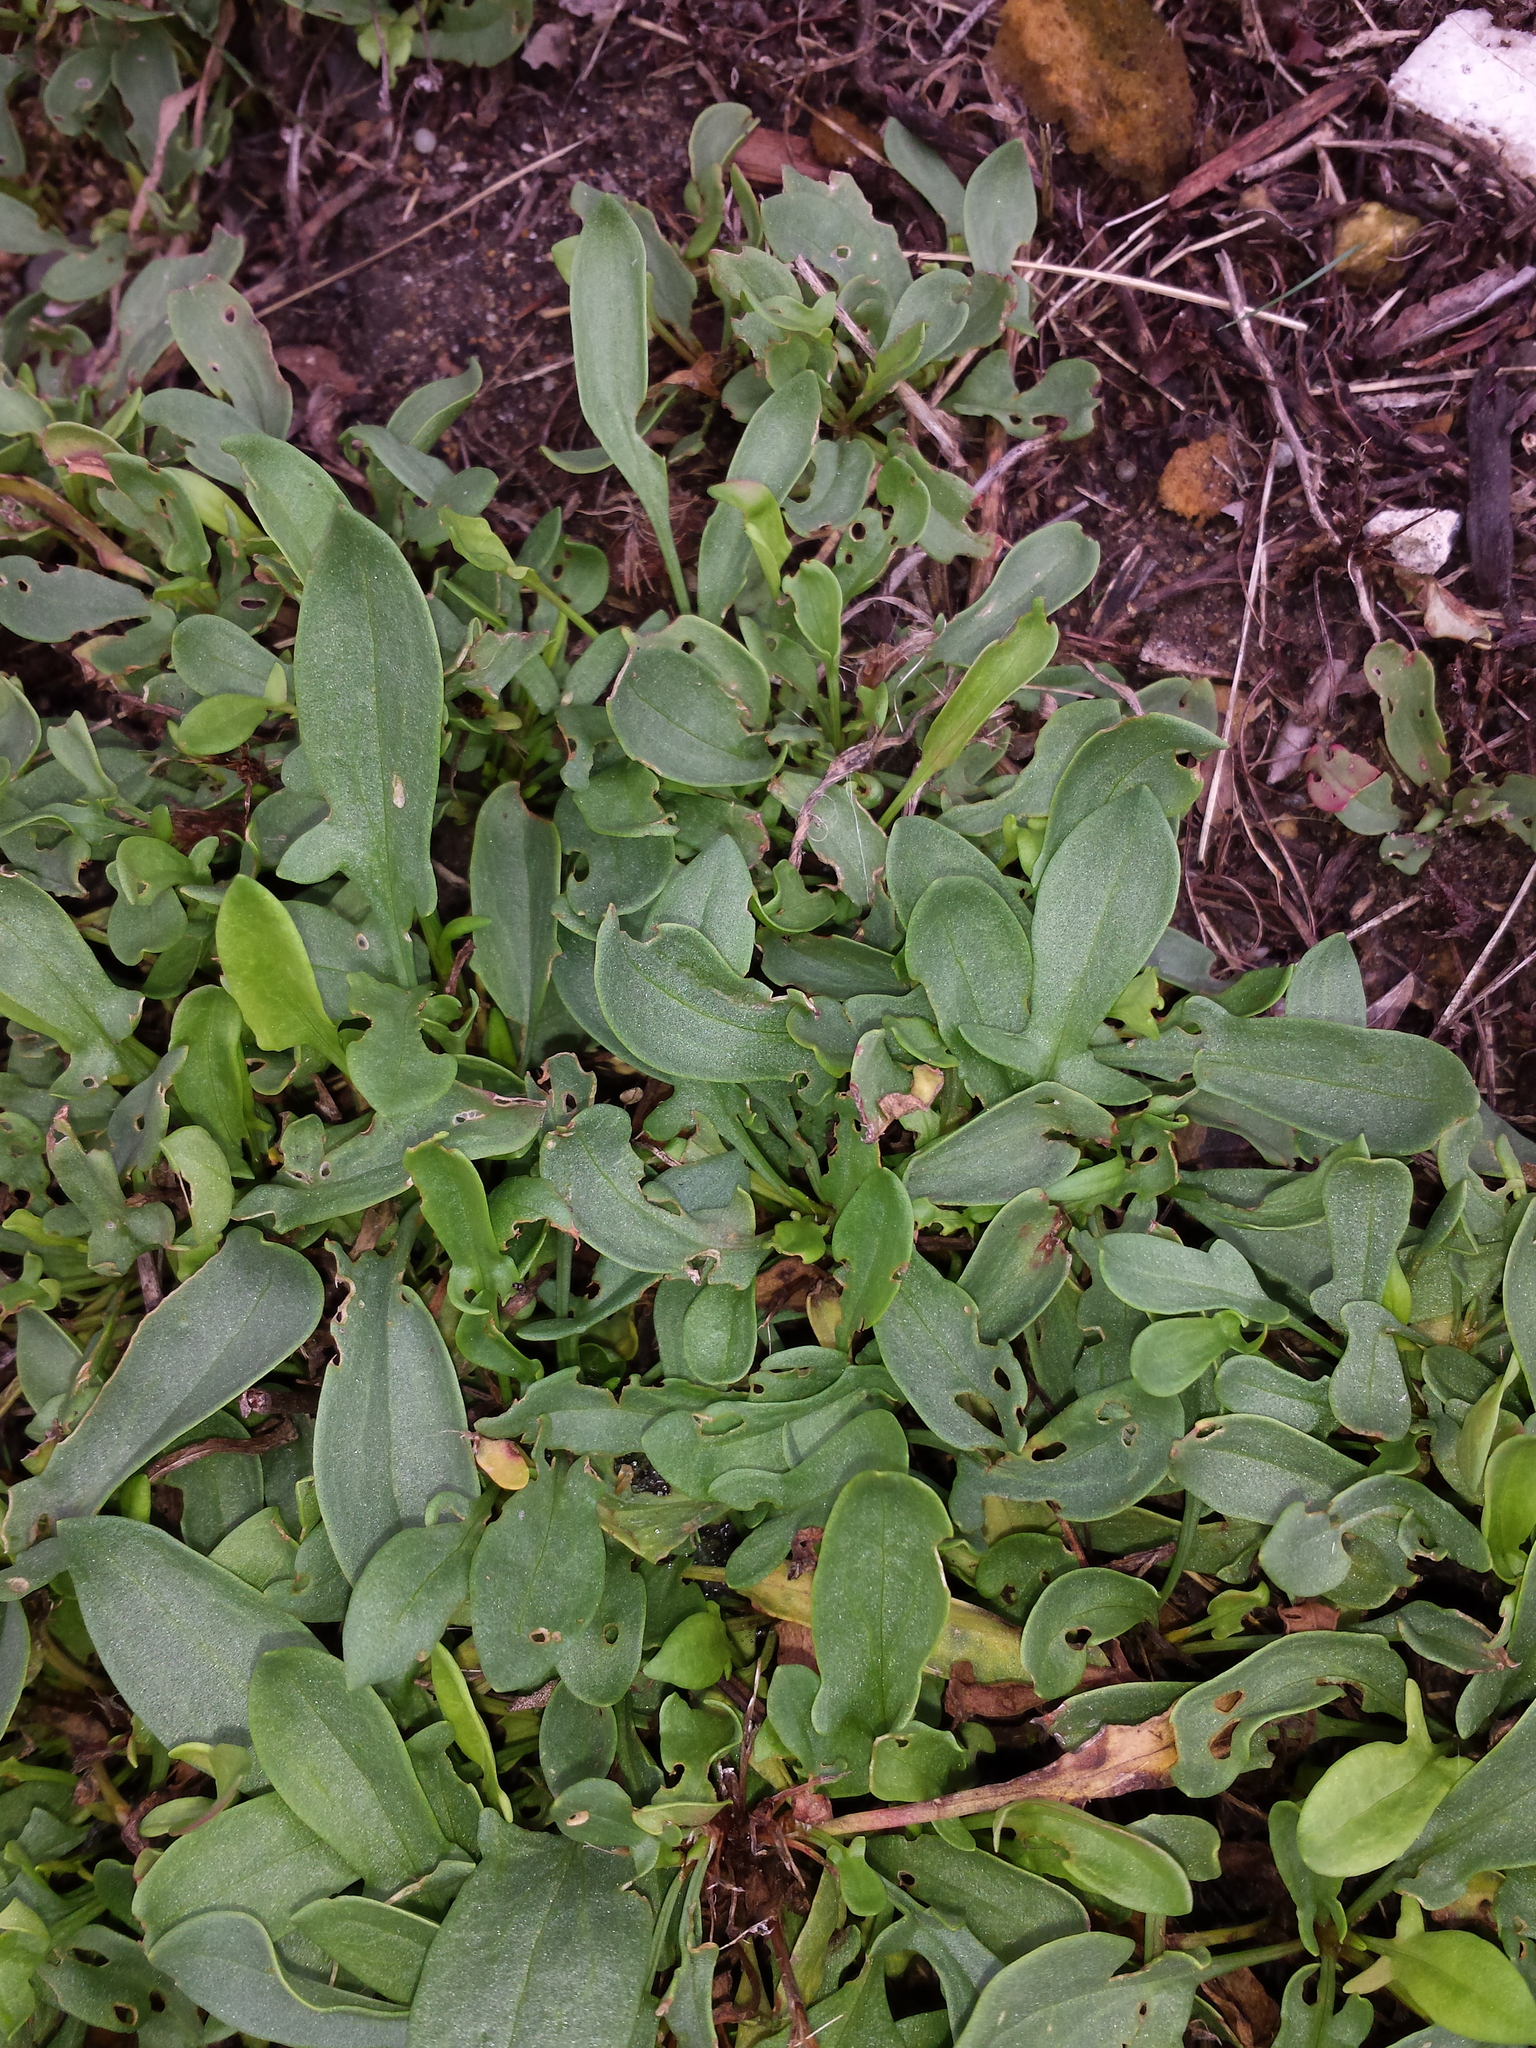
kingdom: Plantae
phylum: Tracheophyta
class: Magnoliopsida
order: Caryophyllales
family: Polygonaceae
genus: Rumex
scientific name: Rumex acetosella
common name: Common sheep sorrel
